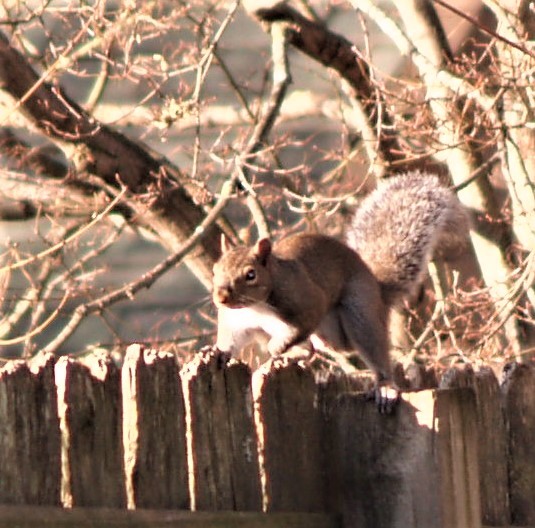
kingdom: Animalia
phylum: Chordata
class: Mammalia
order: Rodentia
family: Sciuridae
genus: Sciurus
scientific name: Sciurus carolinensis
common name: Eastern gray squirrel
